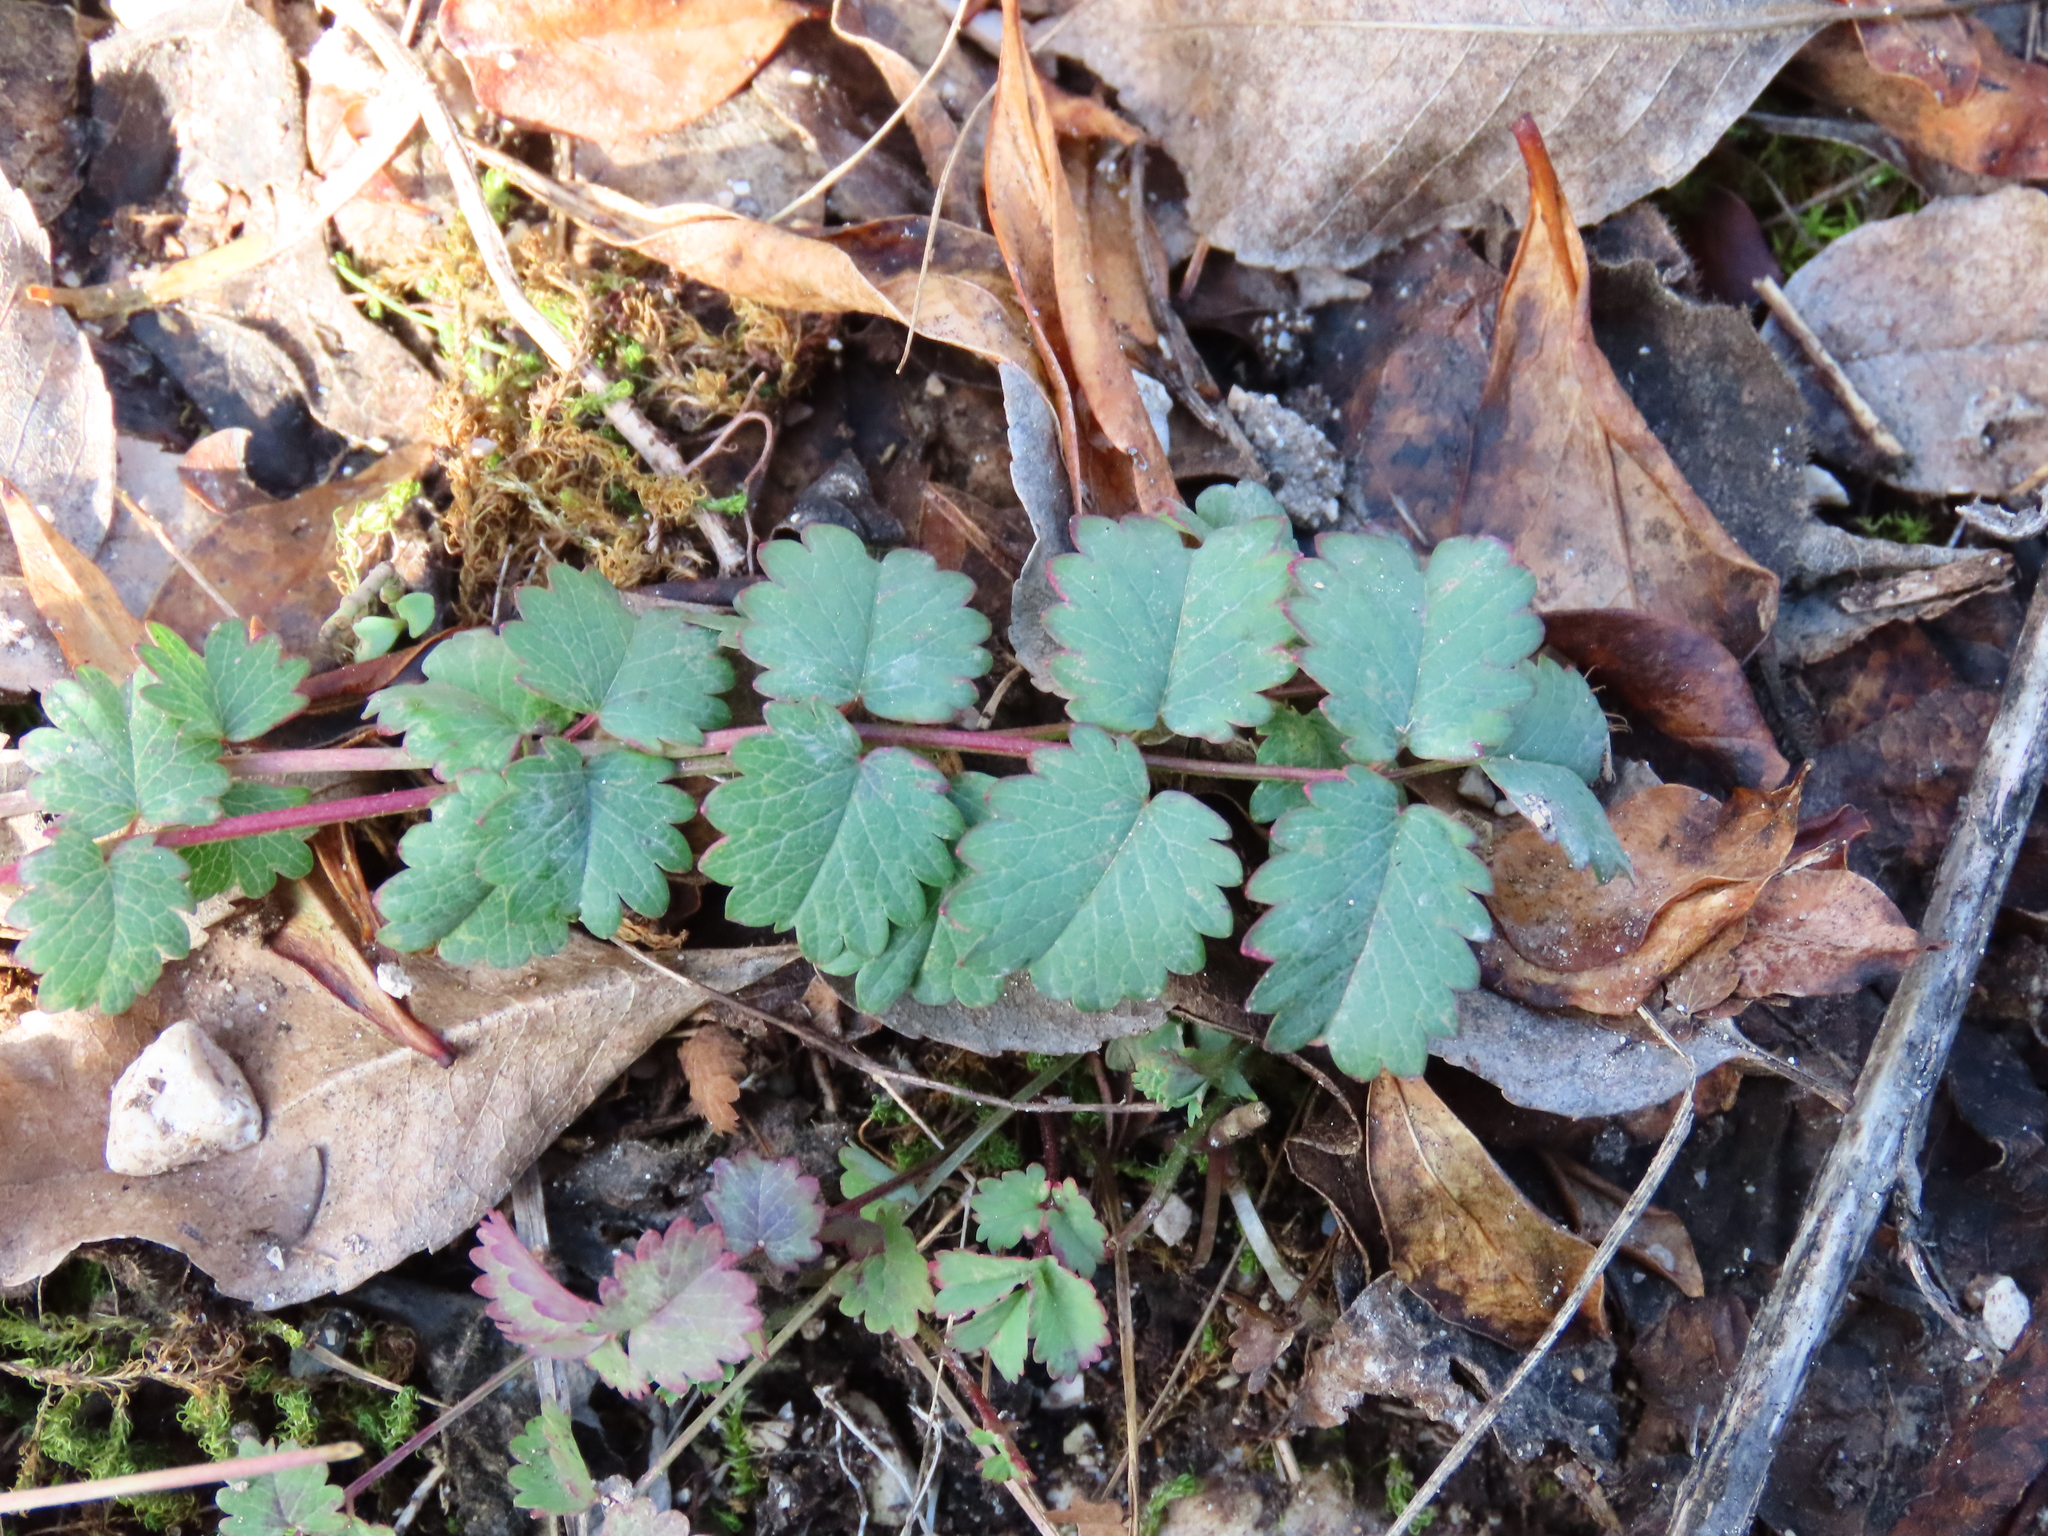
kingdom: Plantae
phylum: Tracheophyta
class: Magnoliopsida
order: Rosales
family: Rosaceae
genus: Poterium
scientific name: Poterium sanguisorba
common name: Salad burnet
